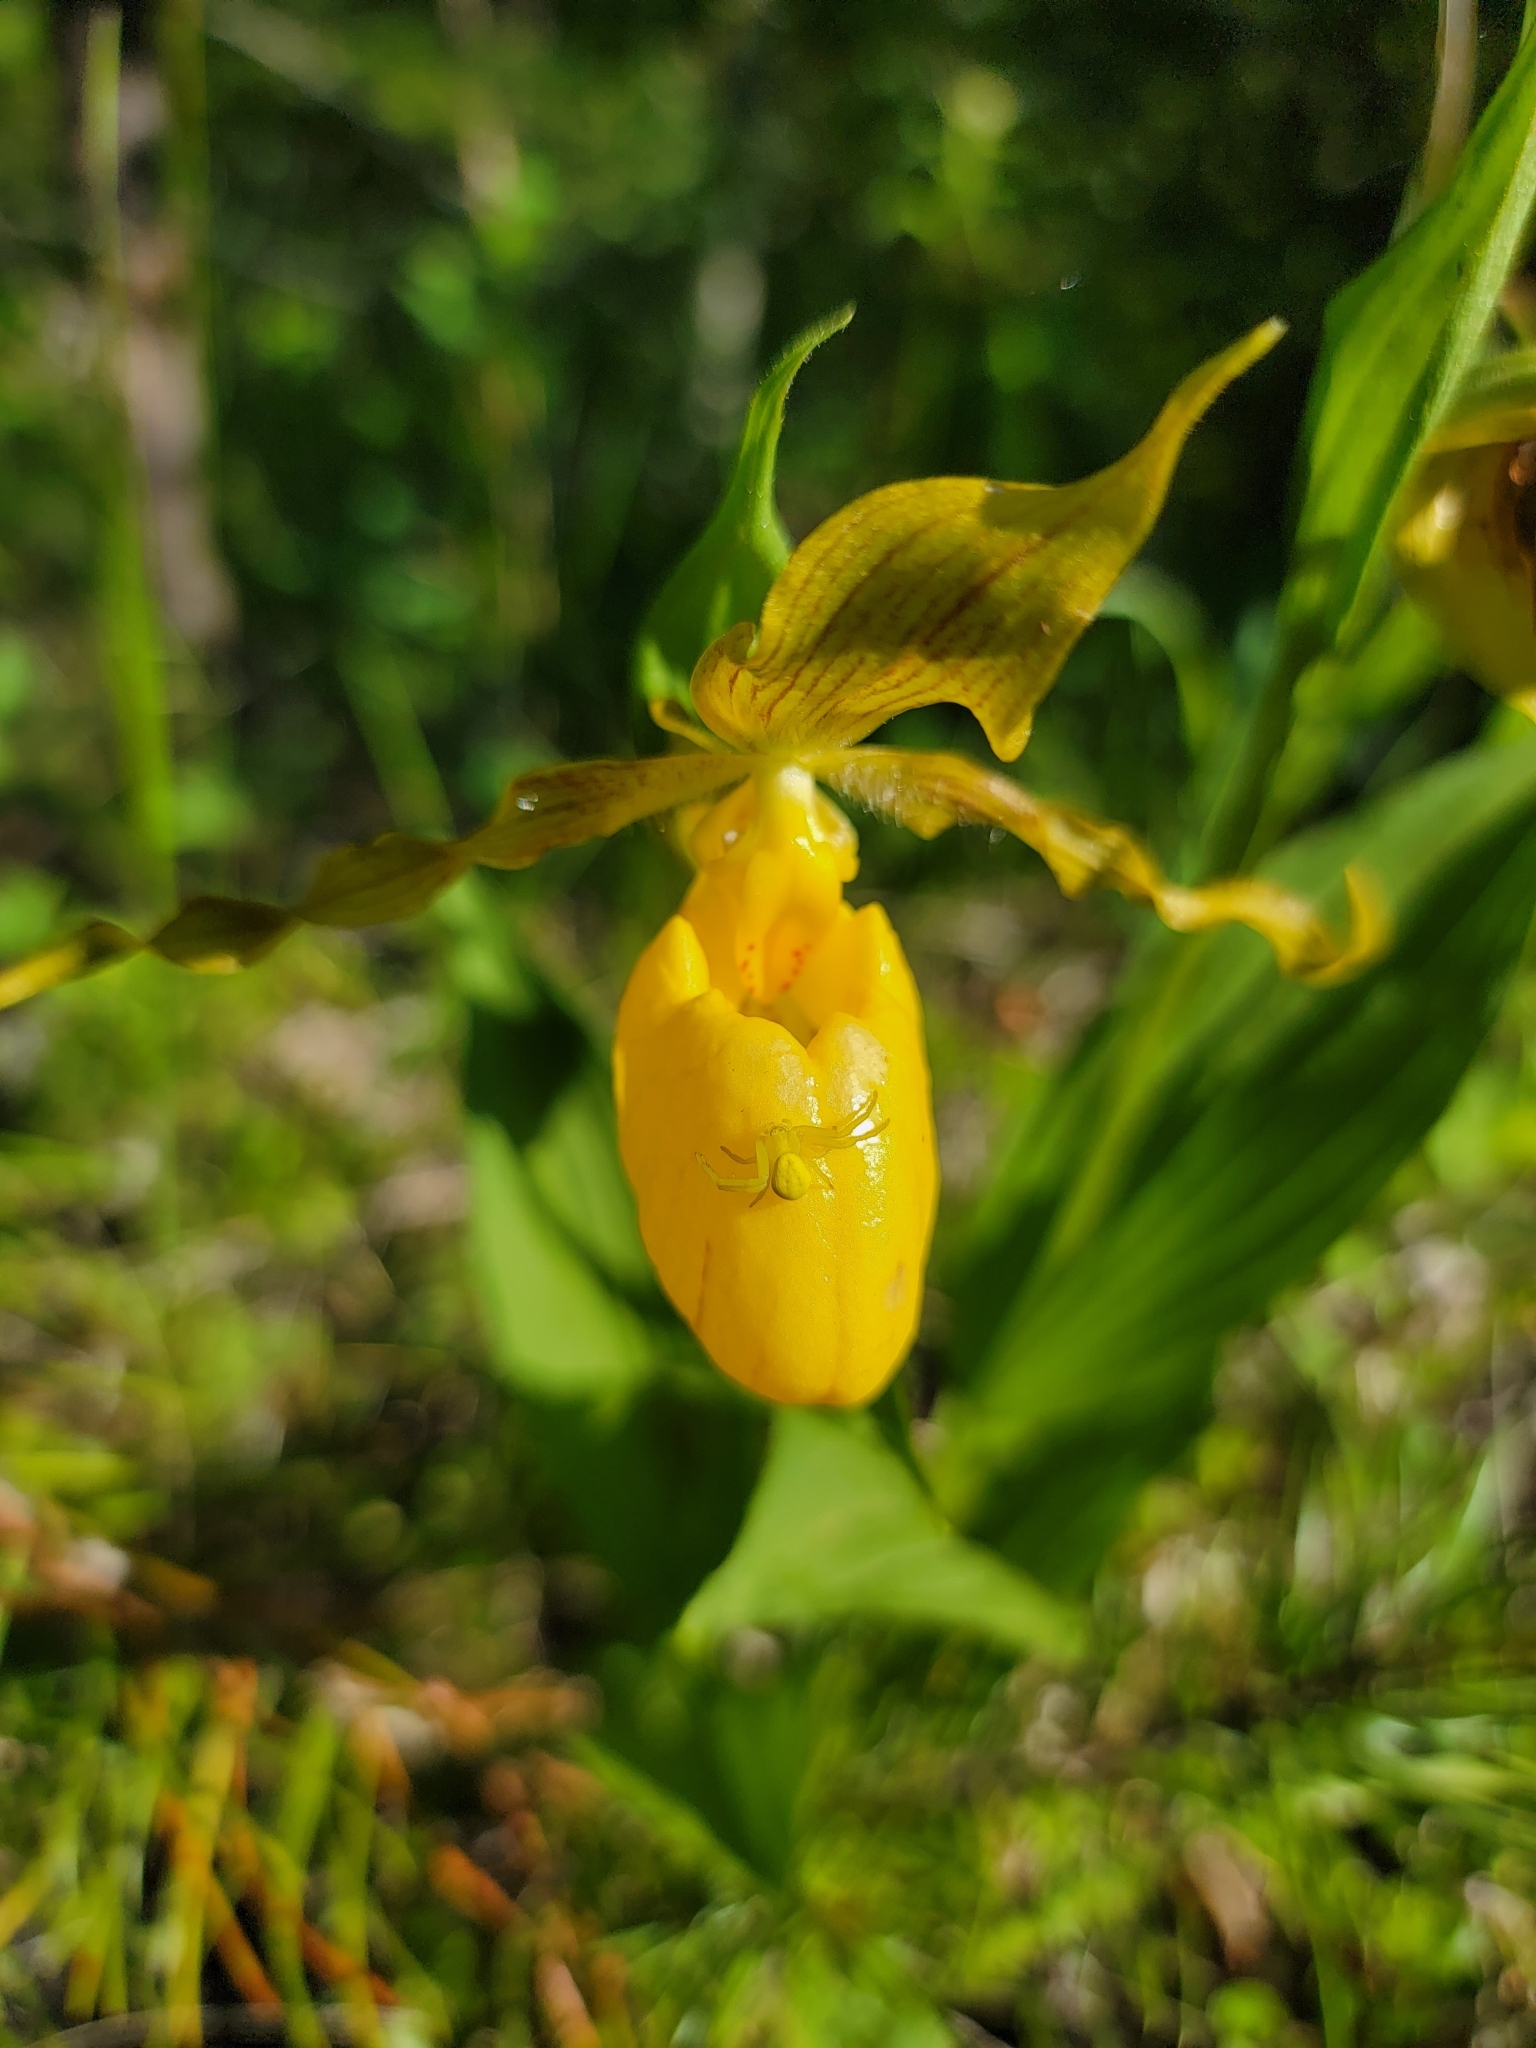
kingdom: Animalia
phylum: Arthropoda
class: Arachnida
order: Araneae
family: Thomisidae
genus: Misumena
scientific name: Misumena vatia
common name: Goldenrod crab spider
